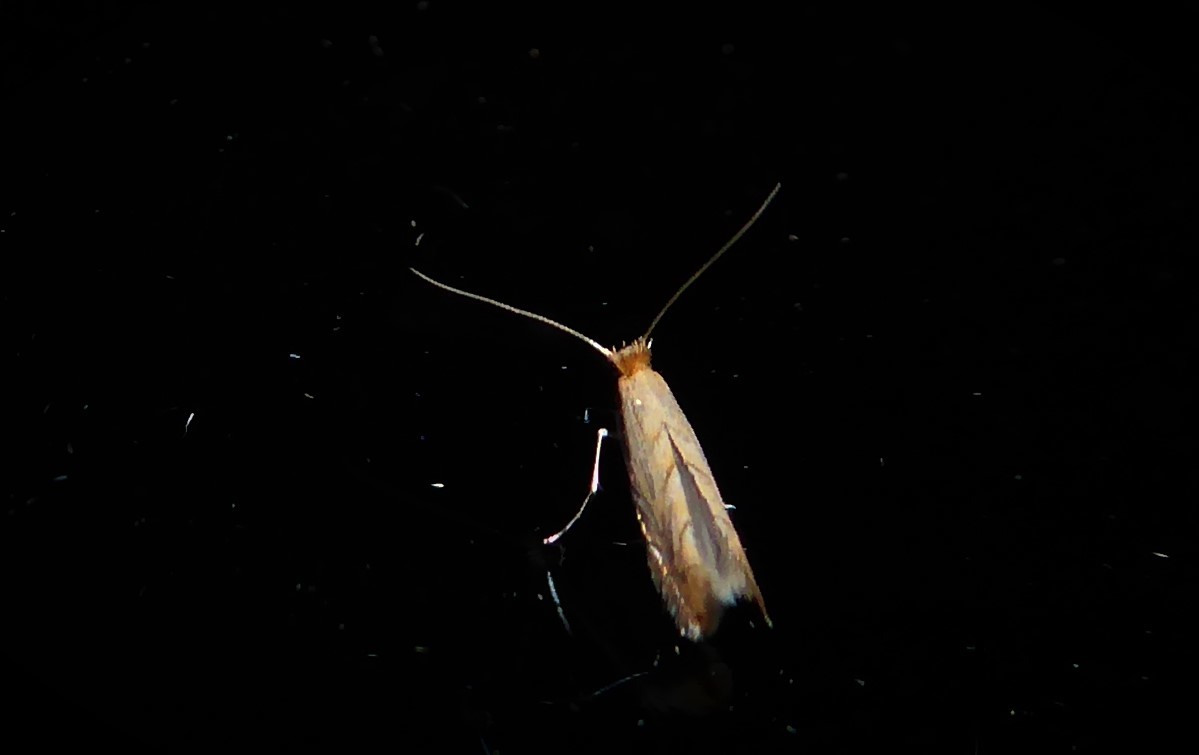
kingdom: Animalia
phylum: Arthropoda
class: Insecta
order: Lepidoptera
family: Gracillariidae
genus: Phyllonorycter
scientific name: Phyllonorycter messaniella
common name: Garden midget
